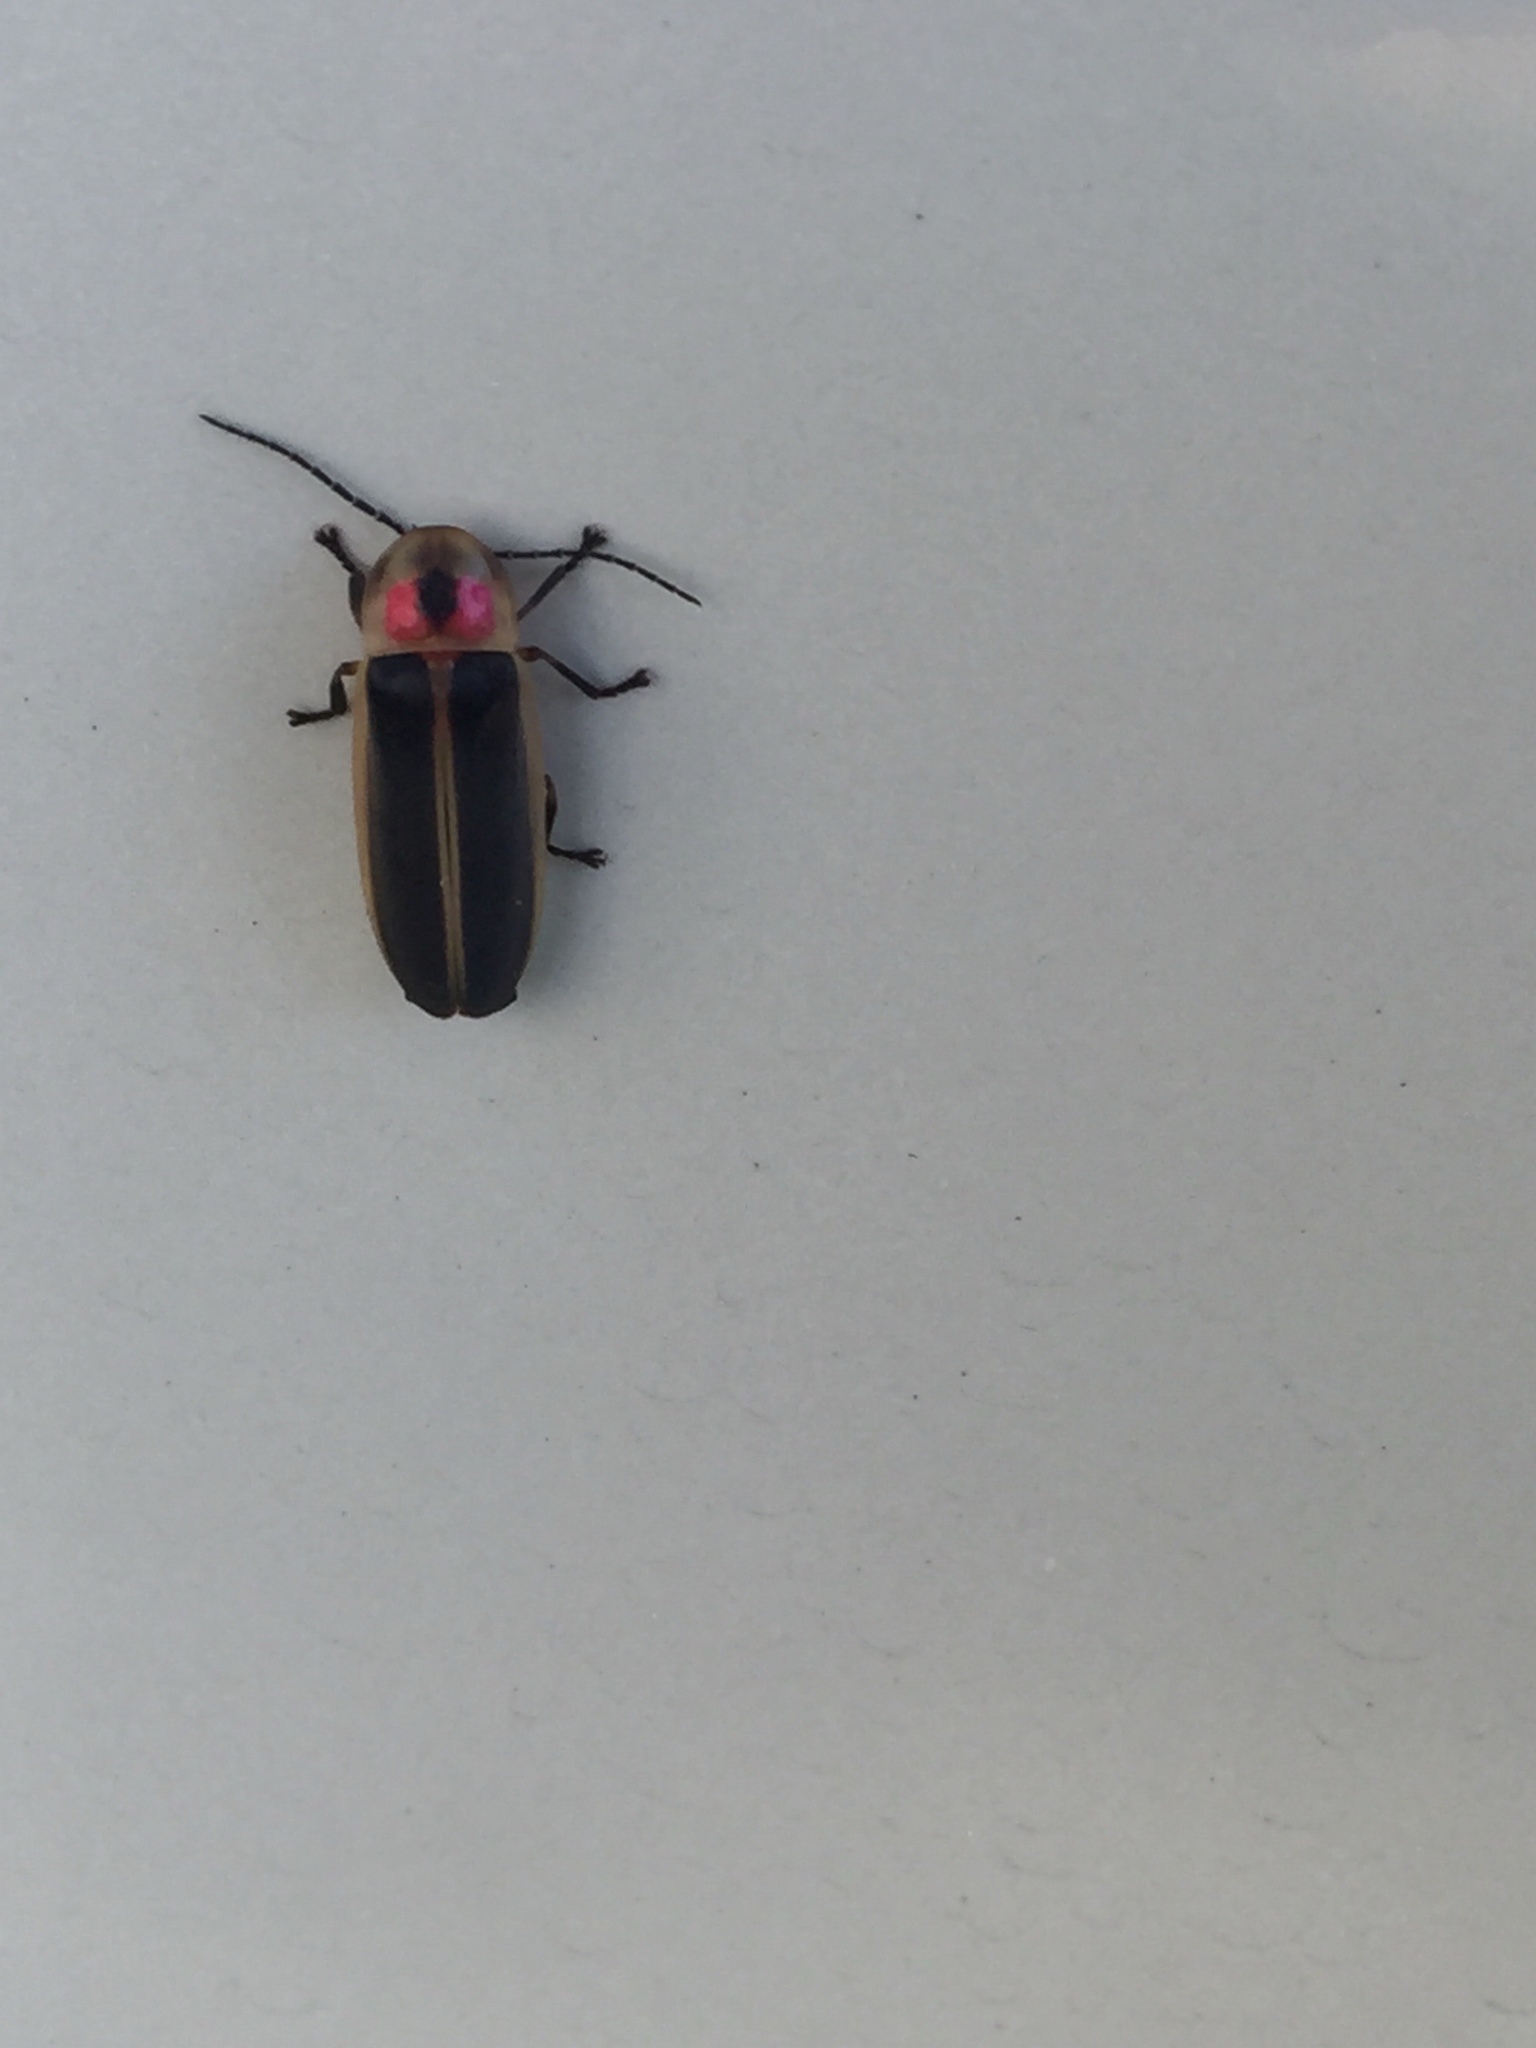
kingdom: Animalia
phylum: Arthropoda
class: Insecta
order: Coleoptera
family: Lampyridae
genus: Photinus
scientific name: Photinus pyralis
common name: Big dipper firefly
